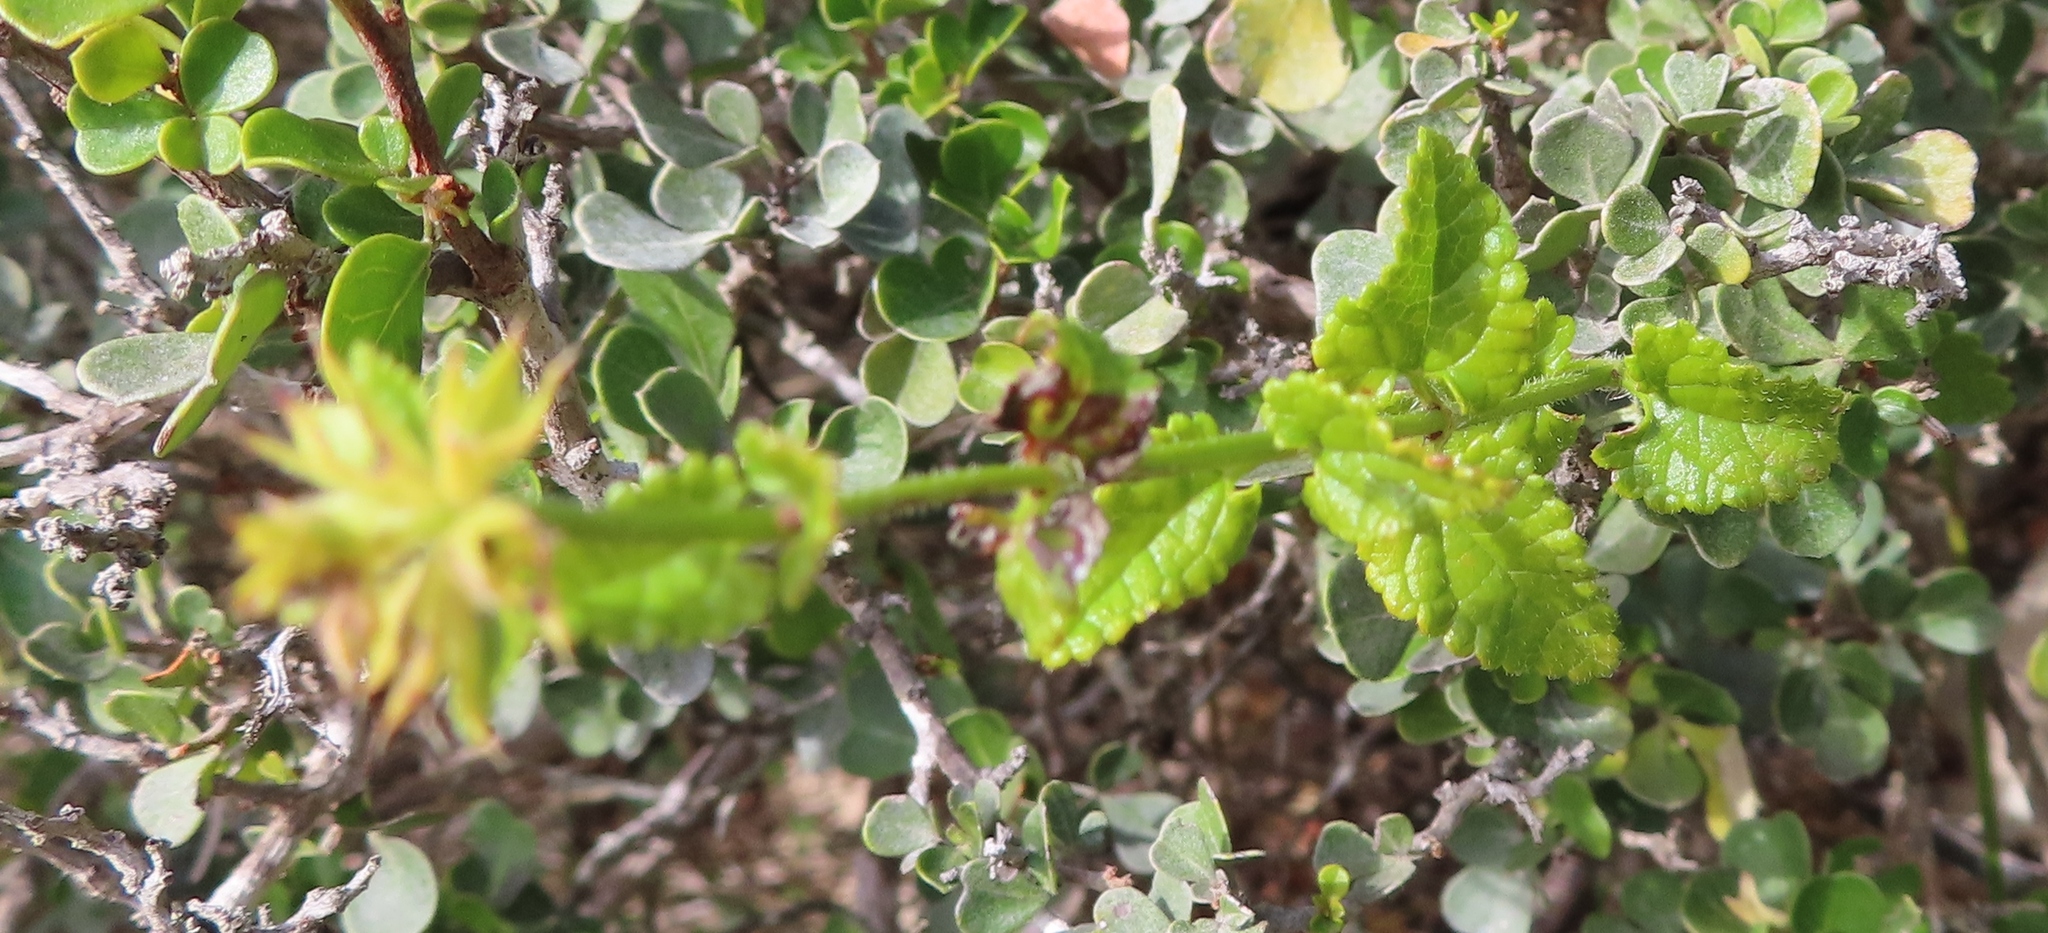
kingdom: Plantae
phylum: Tracheophyta
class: Magnoliopsida
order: Lamiales
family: Lamiaceae
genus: Stachys
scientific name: Stachys aethiopica
